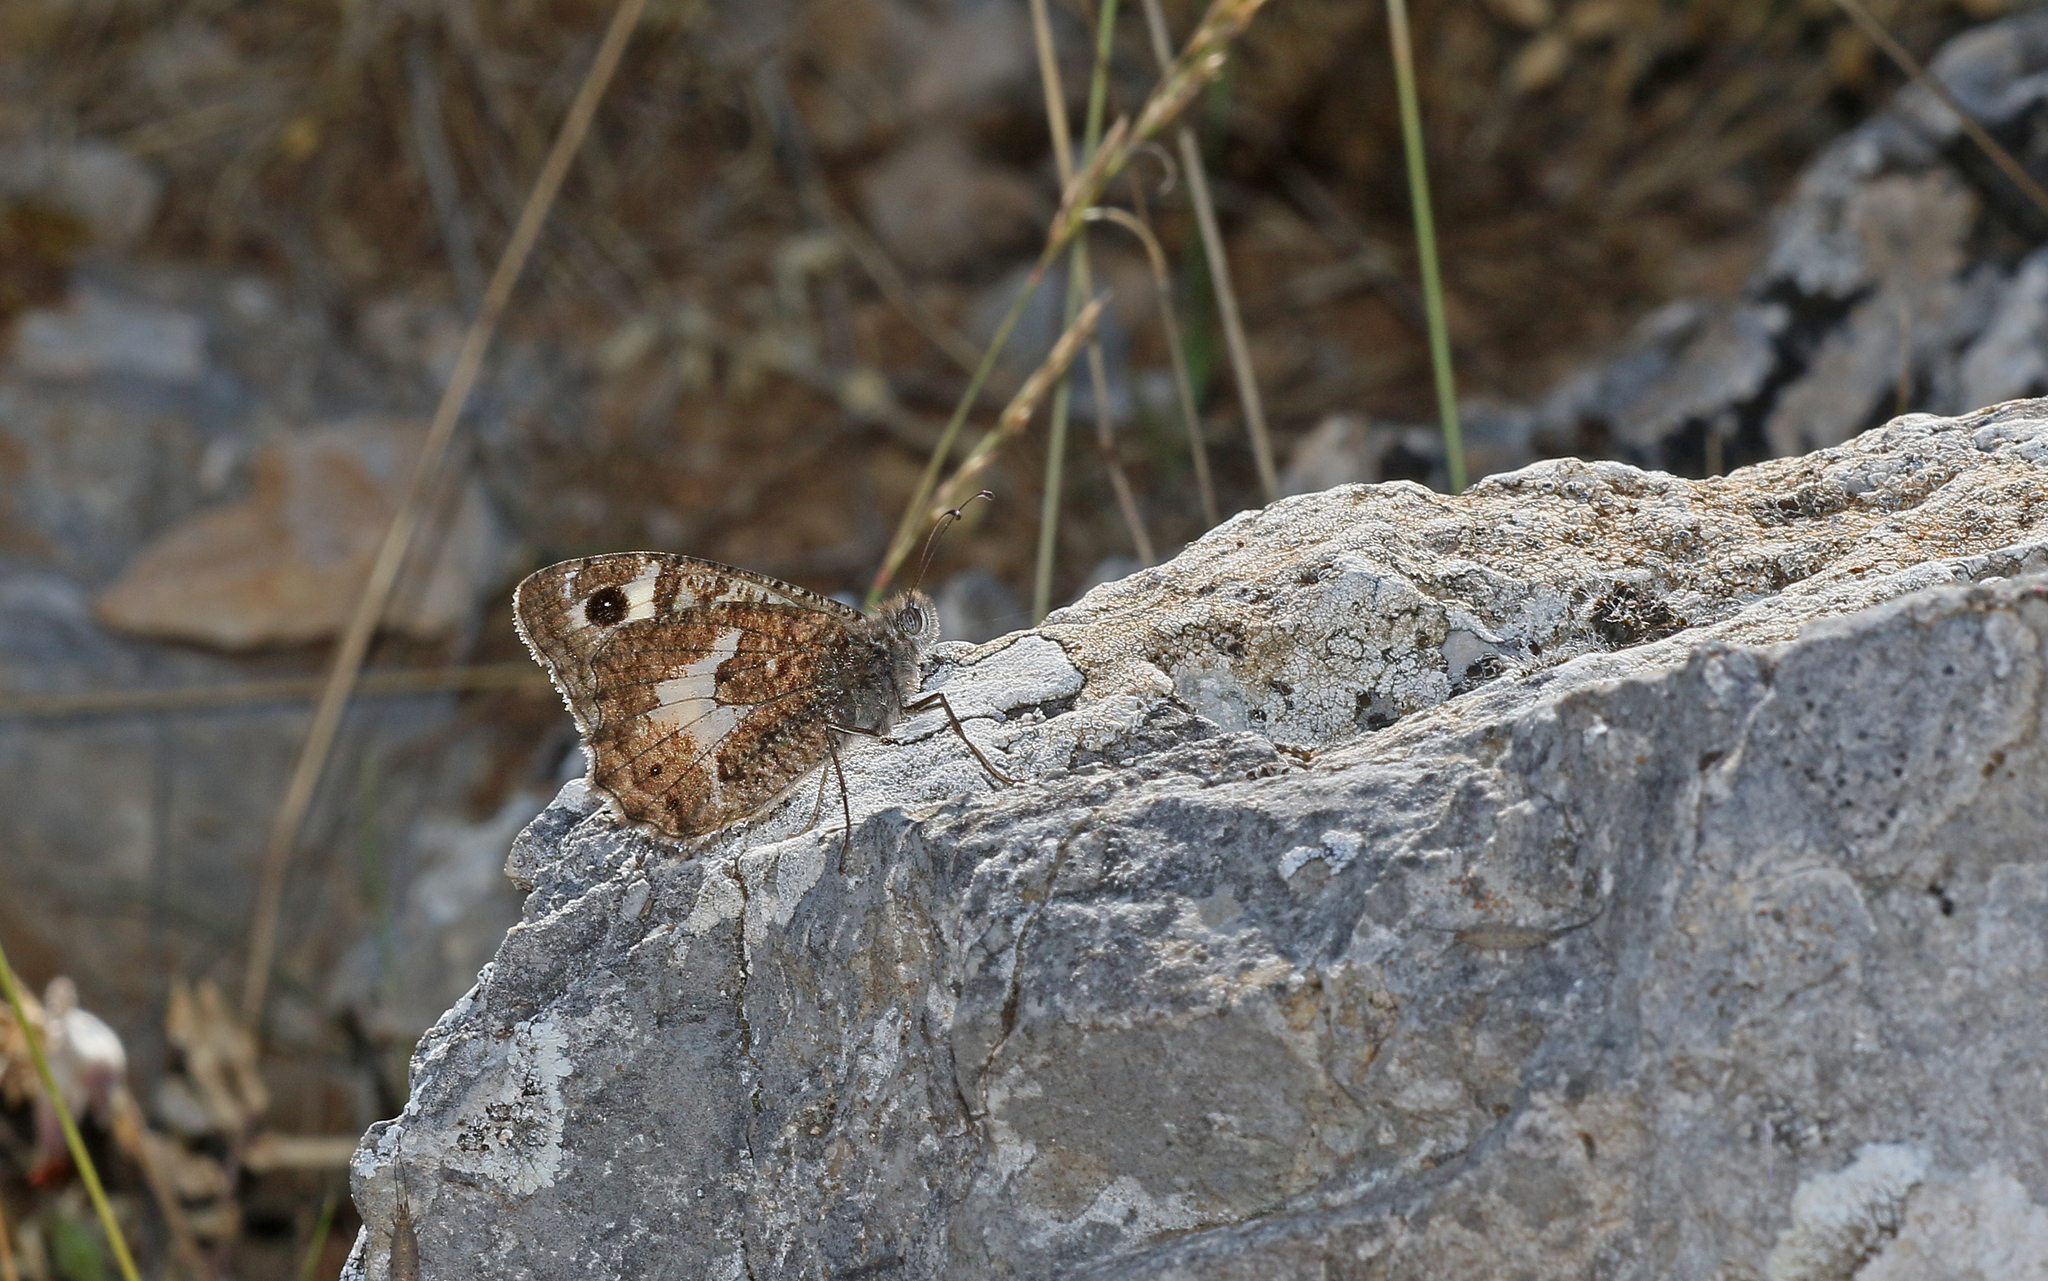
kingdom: Animalia
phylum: Arthropoda
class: Insecta
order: Lepidoptera
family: Nymphalidae
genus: Satyrus
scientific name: Satyrus anthelea
